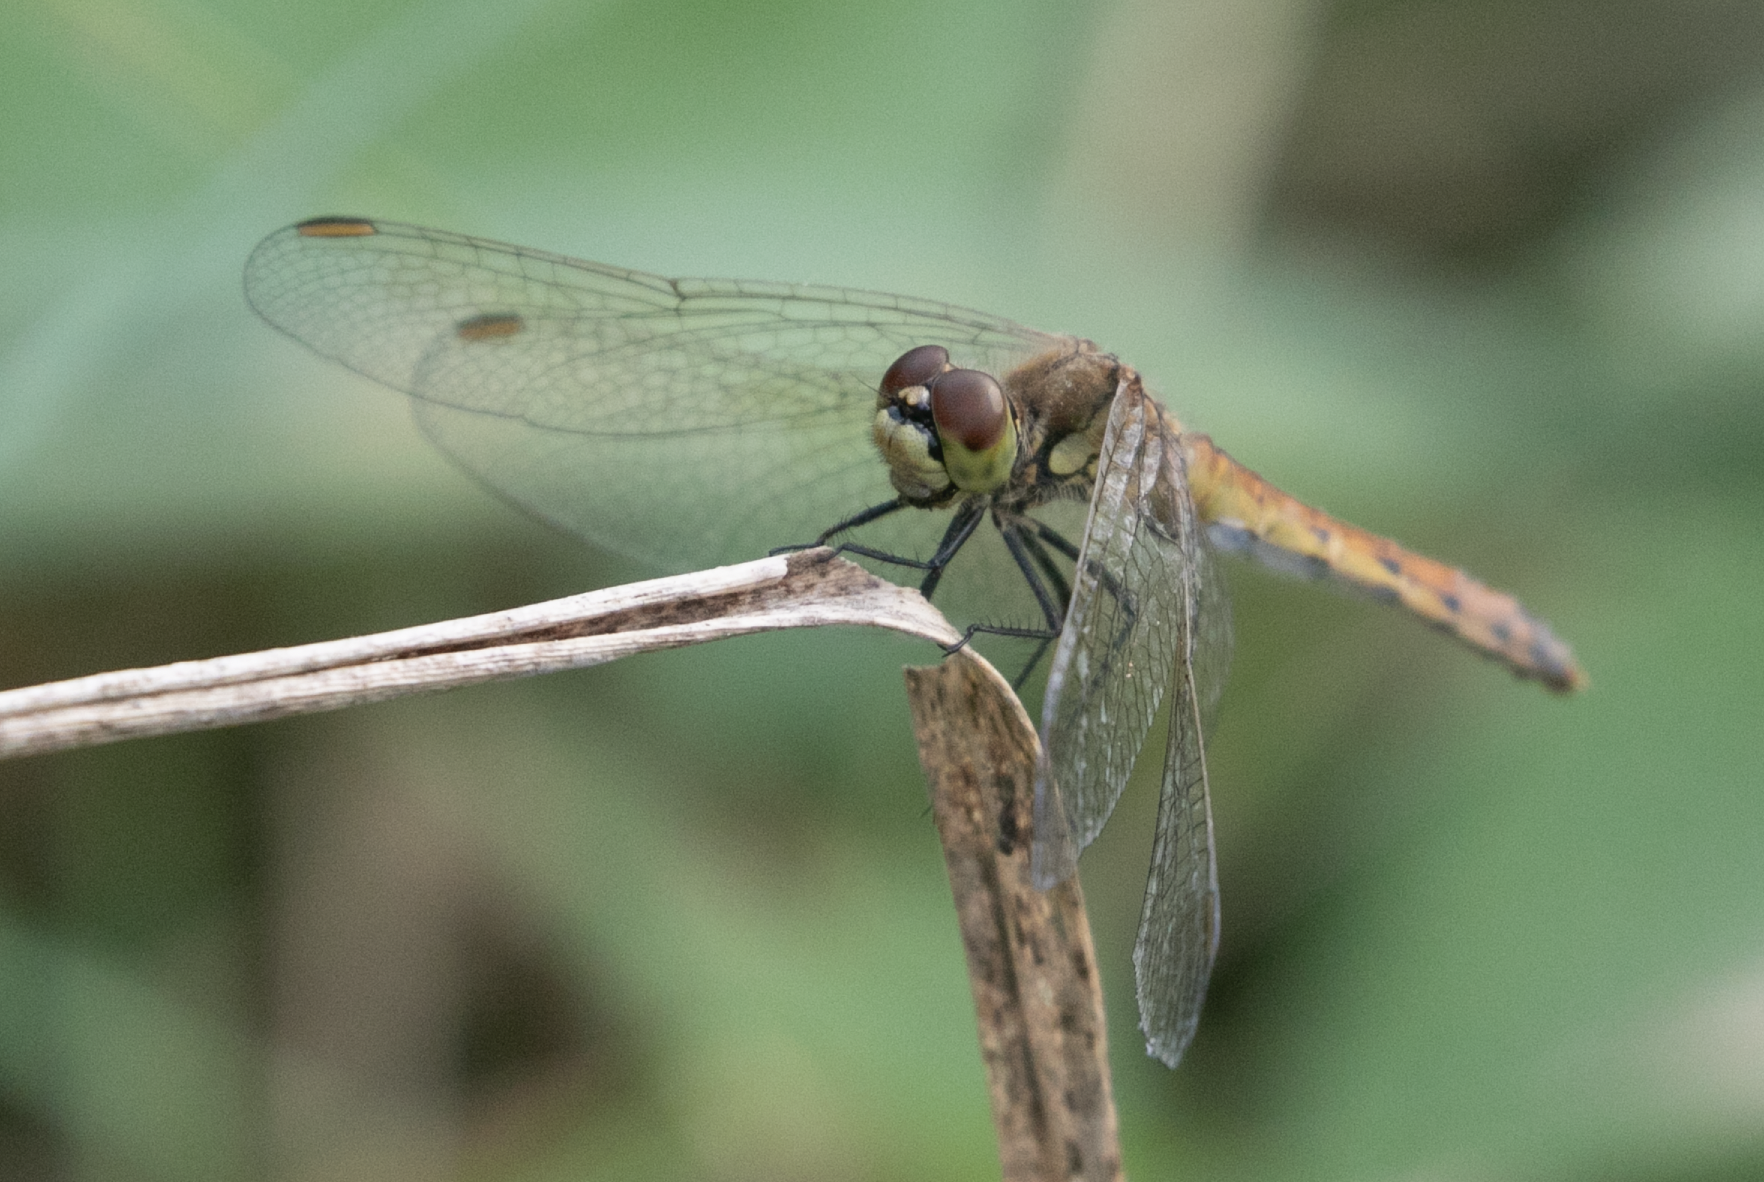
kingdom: Animalia
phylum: Arthropoda
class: Insecta
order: Odonata
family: Libellulidae
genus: Sympetrum
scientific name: Sympetrum depressiusculum
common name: Spotted darter
